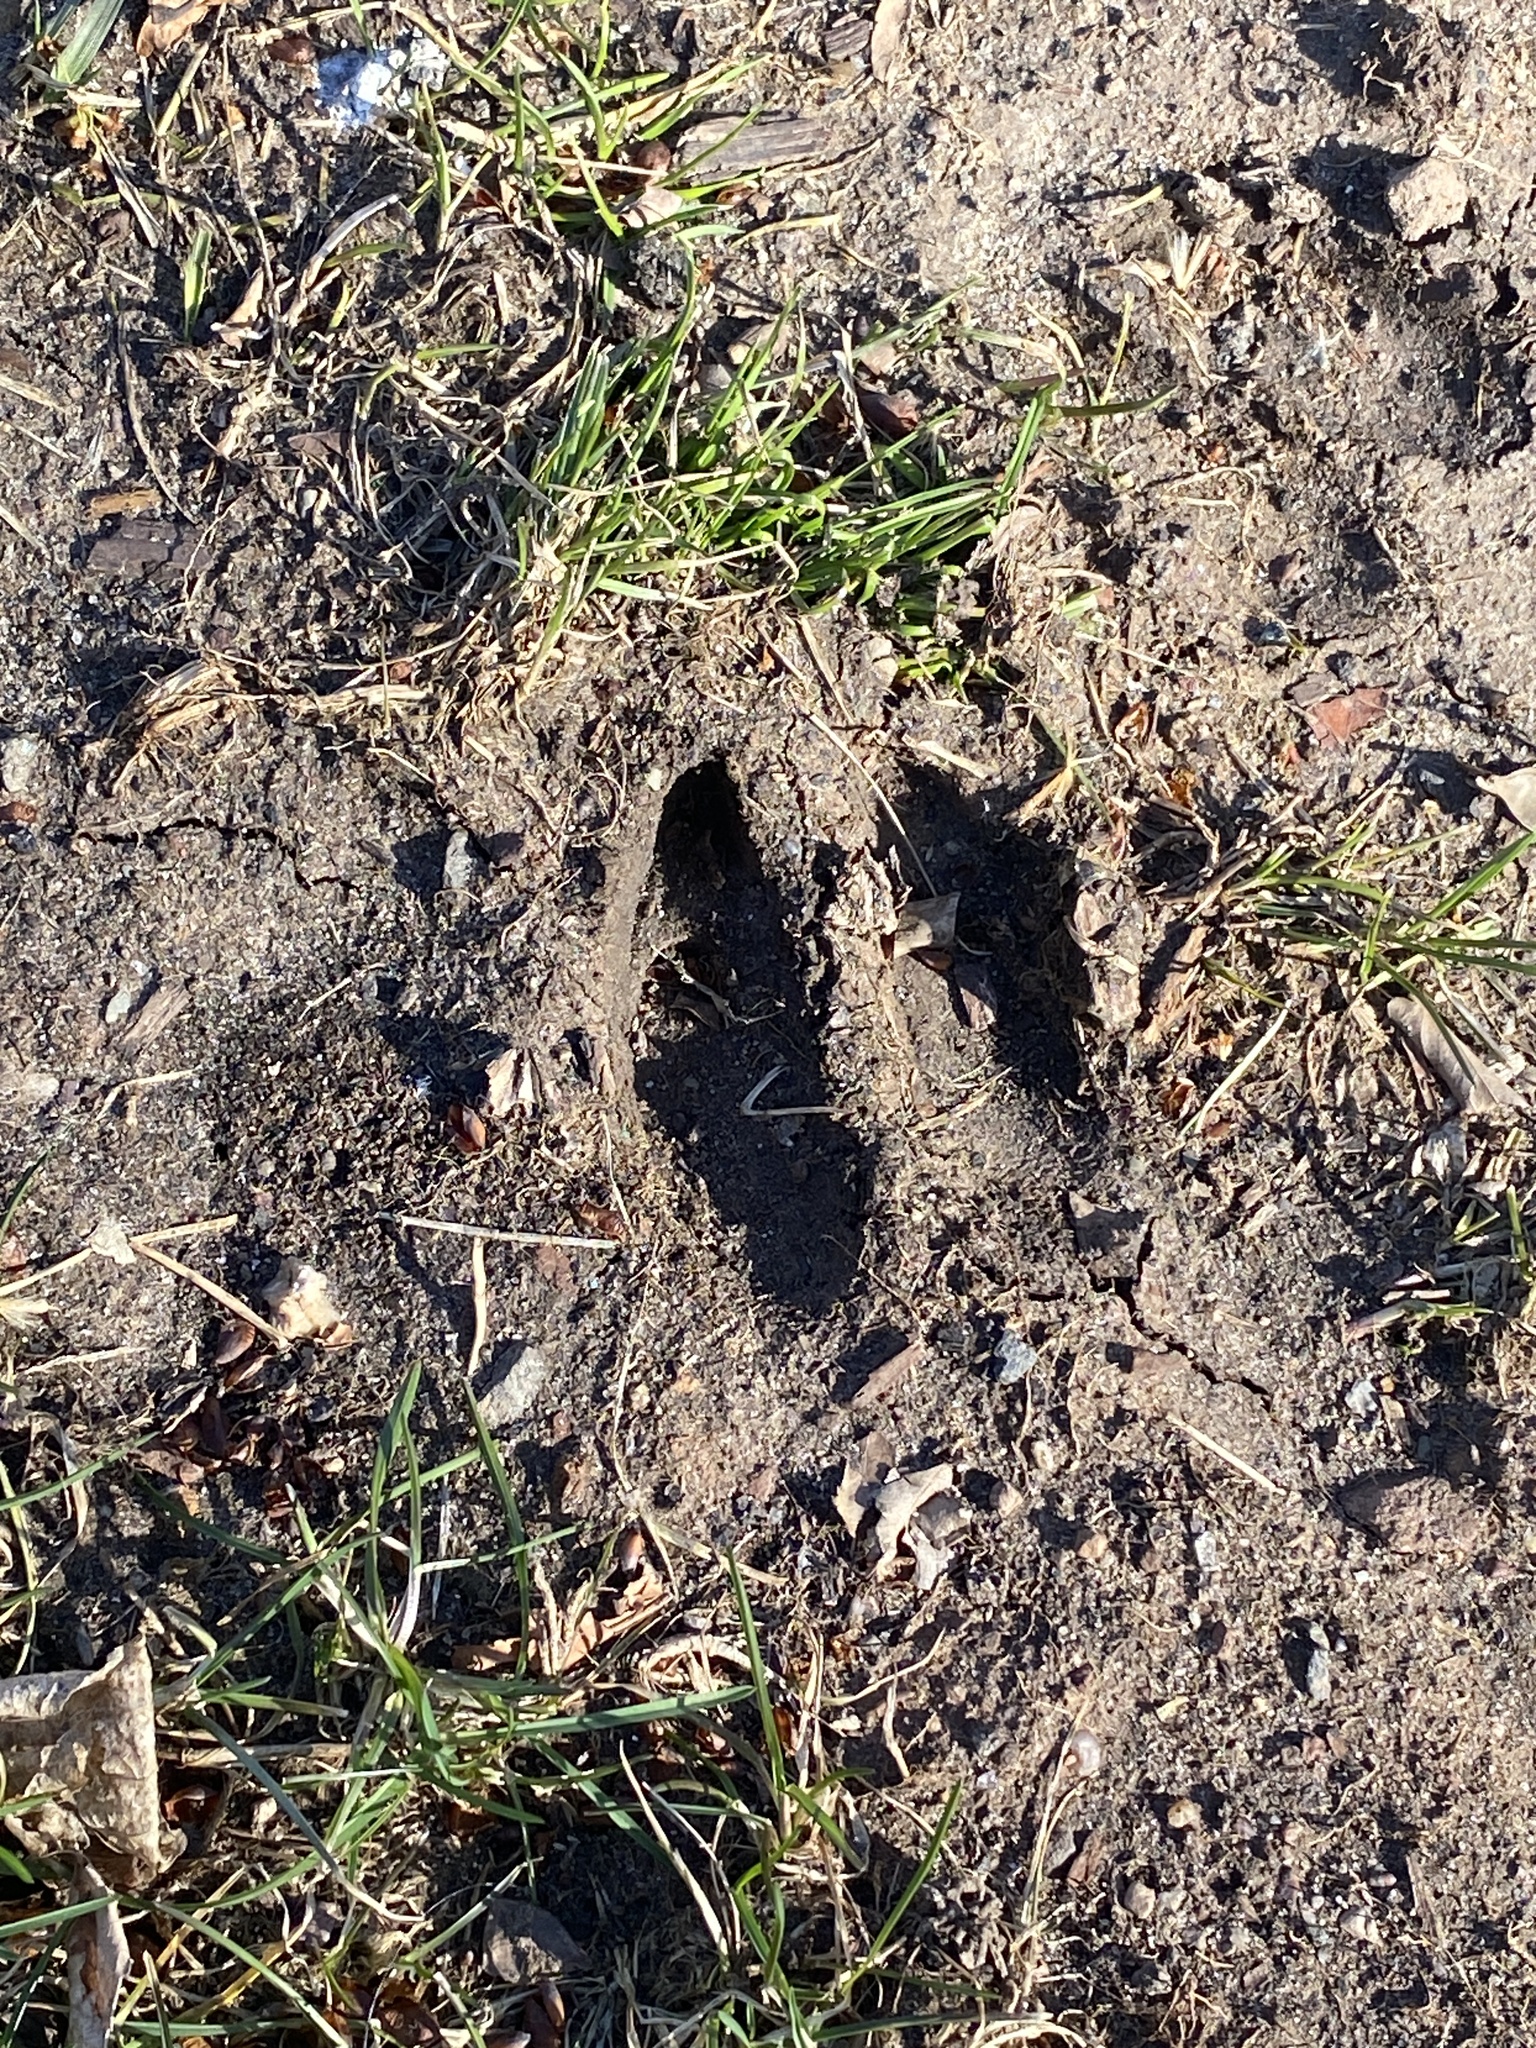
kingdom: Animalia
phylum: Chordata
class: Mammalia
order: Artiodactyla
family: Cervidae
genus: Odocoileus
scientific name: Odocoileus virginianus
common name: White-tailed deer
